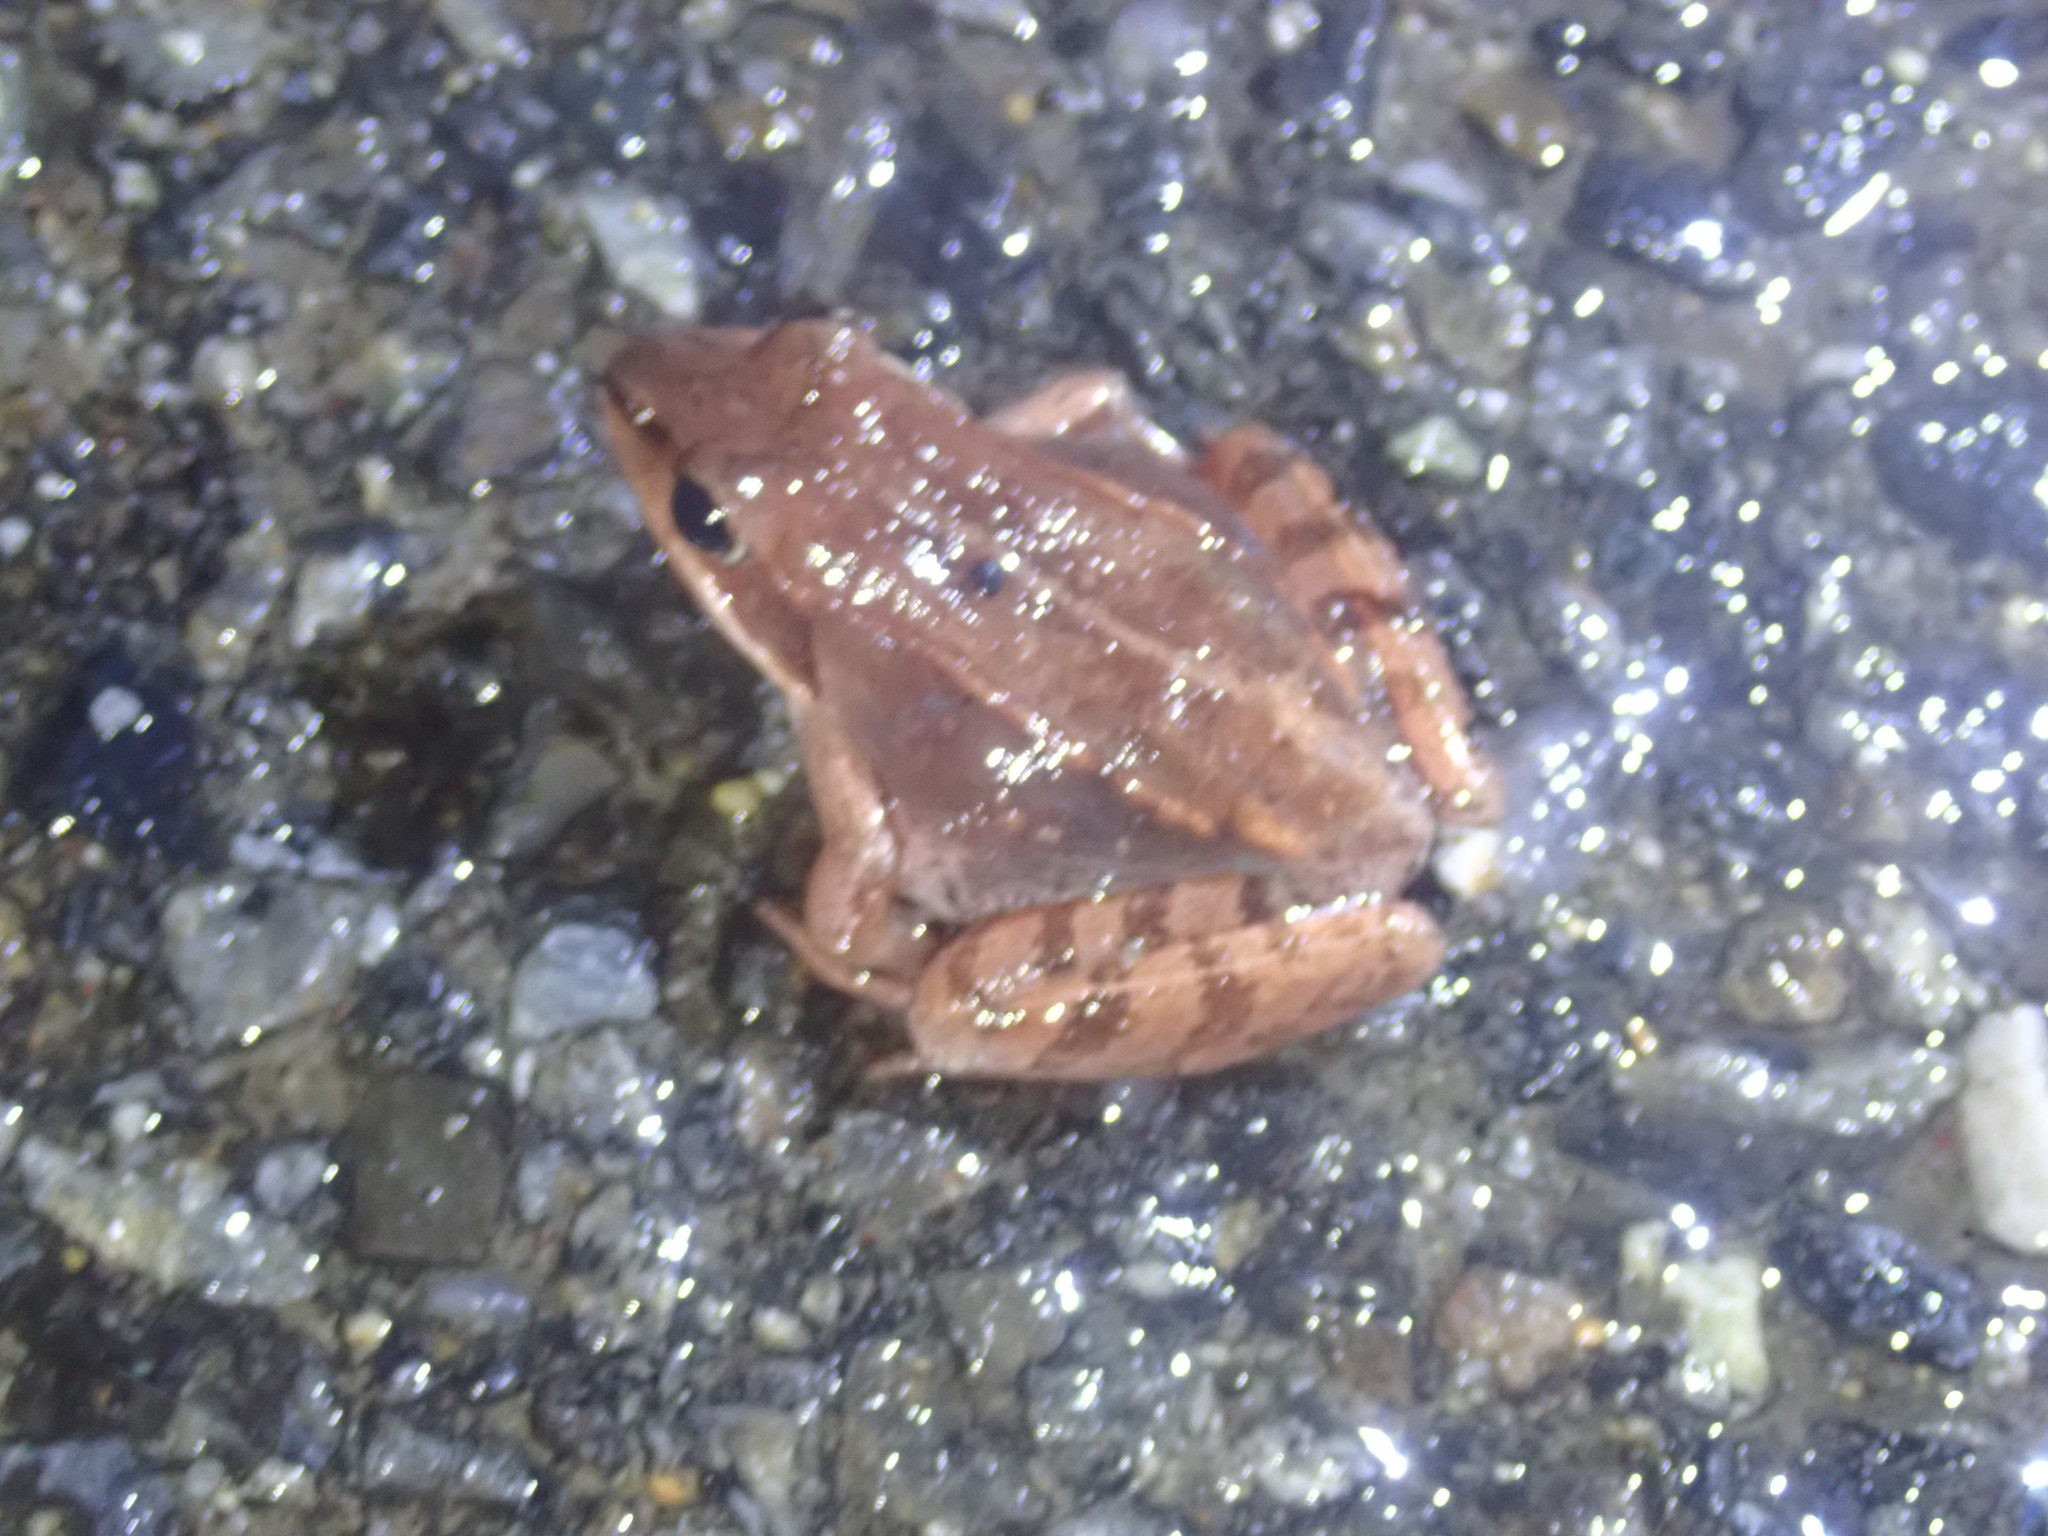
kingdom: Animalia
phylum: Chordata
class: Amphibia
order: Anura
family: Ranidae
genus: Lithobates
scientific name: Lithobates sylvaticus
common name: Wood frog
